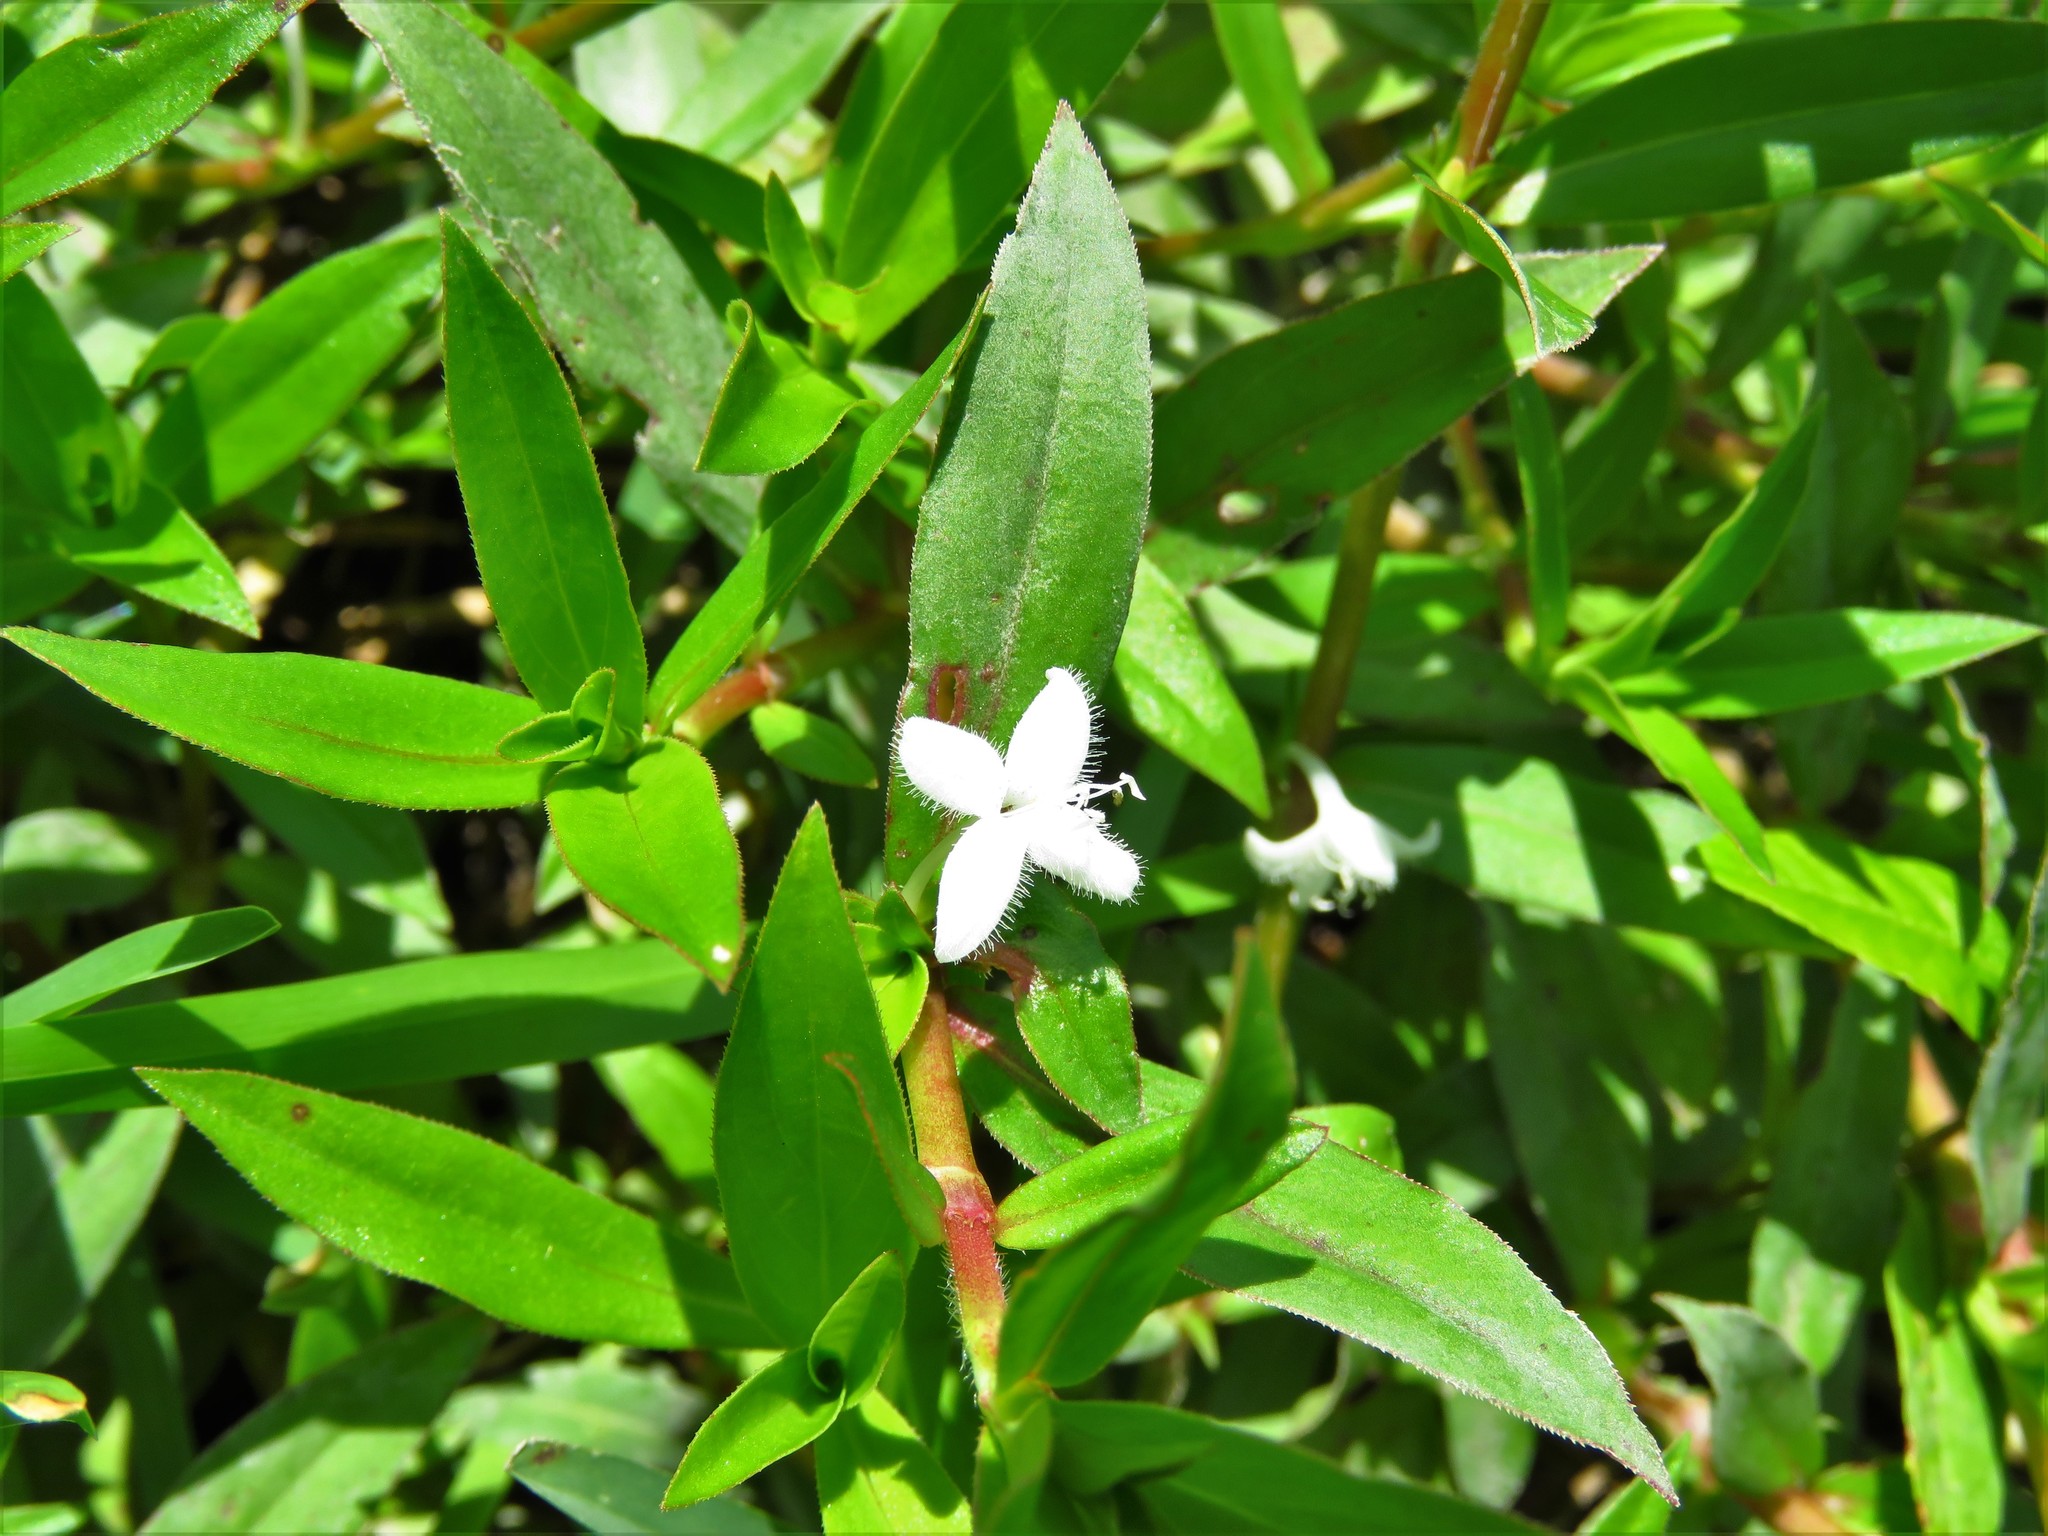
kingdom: Plantae
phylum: Tracheophyta
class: Magnoliopsida
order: Gentianales
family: Rubiaceae
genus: Diodia
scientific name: Diodia virginiana
